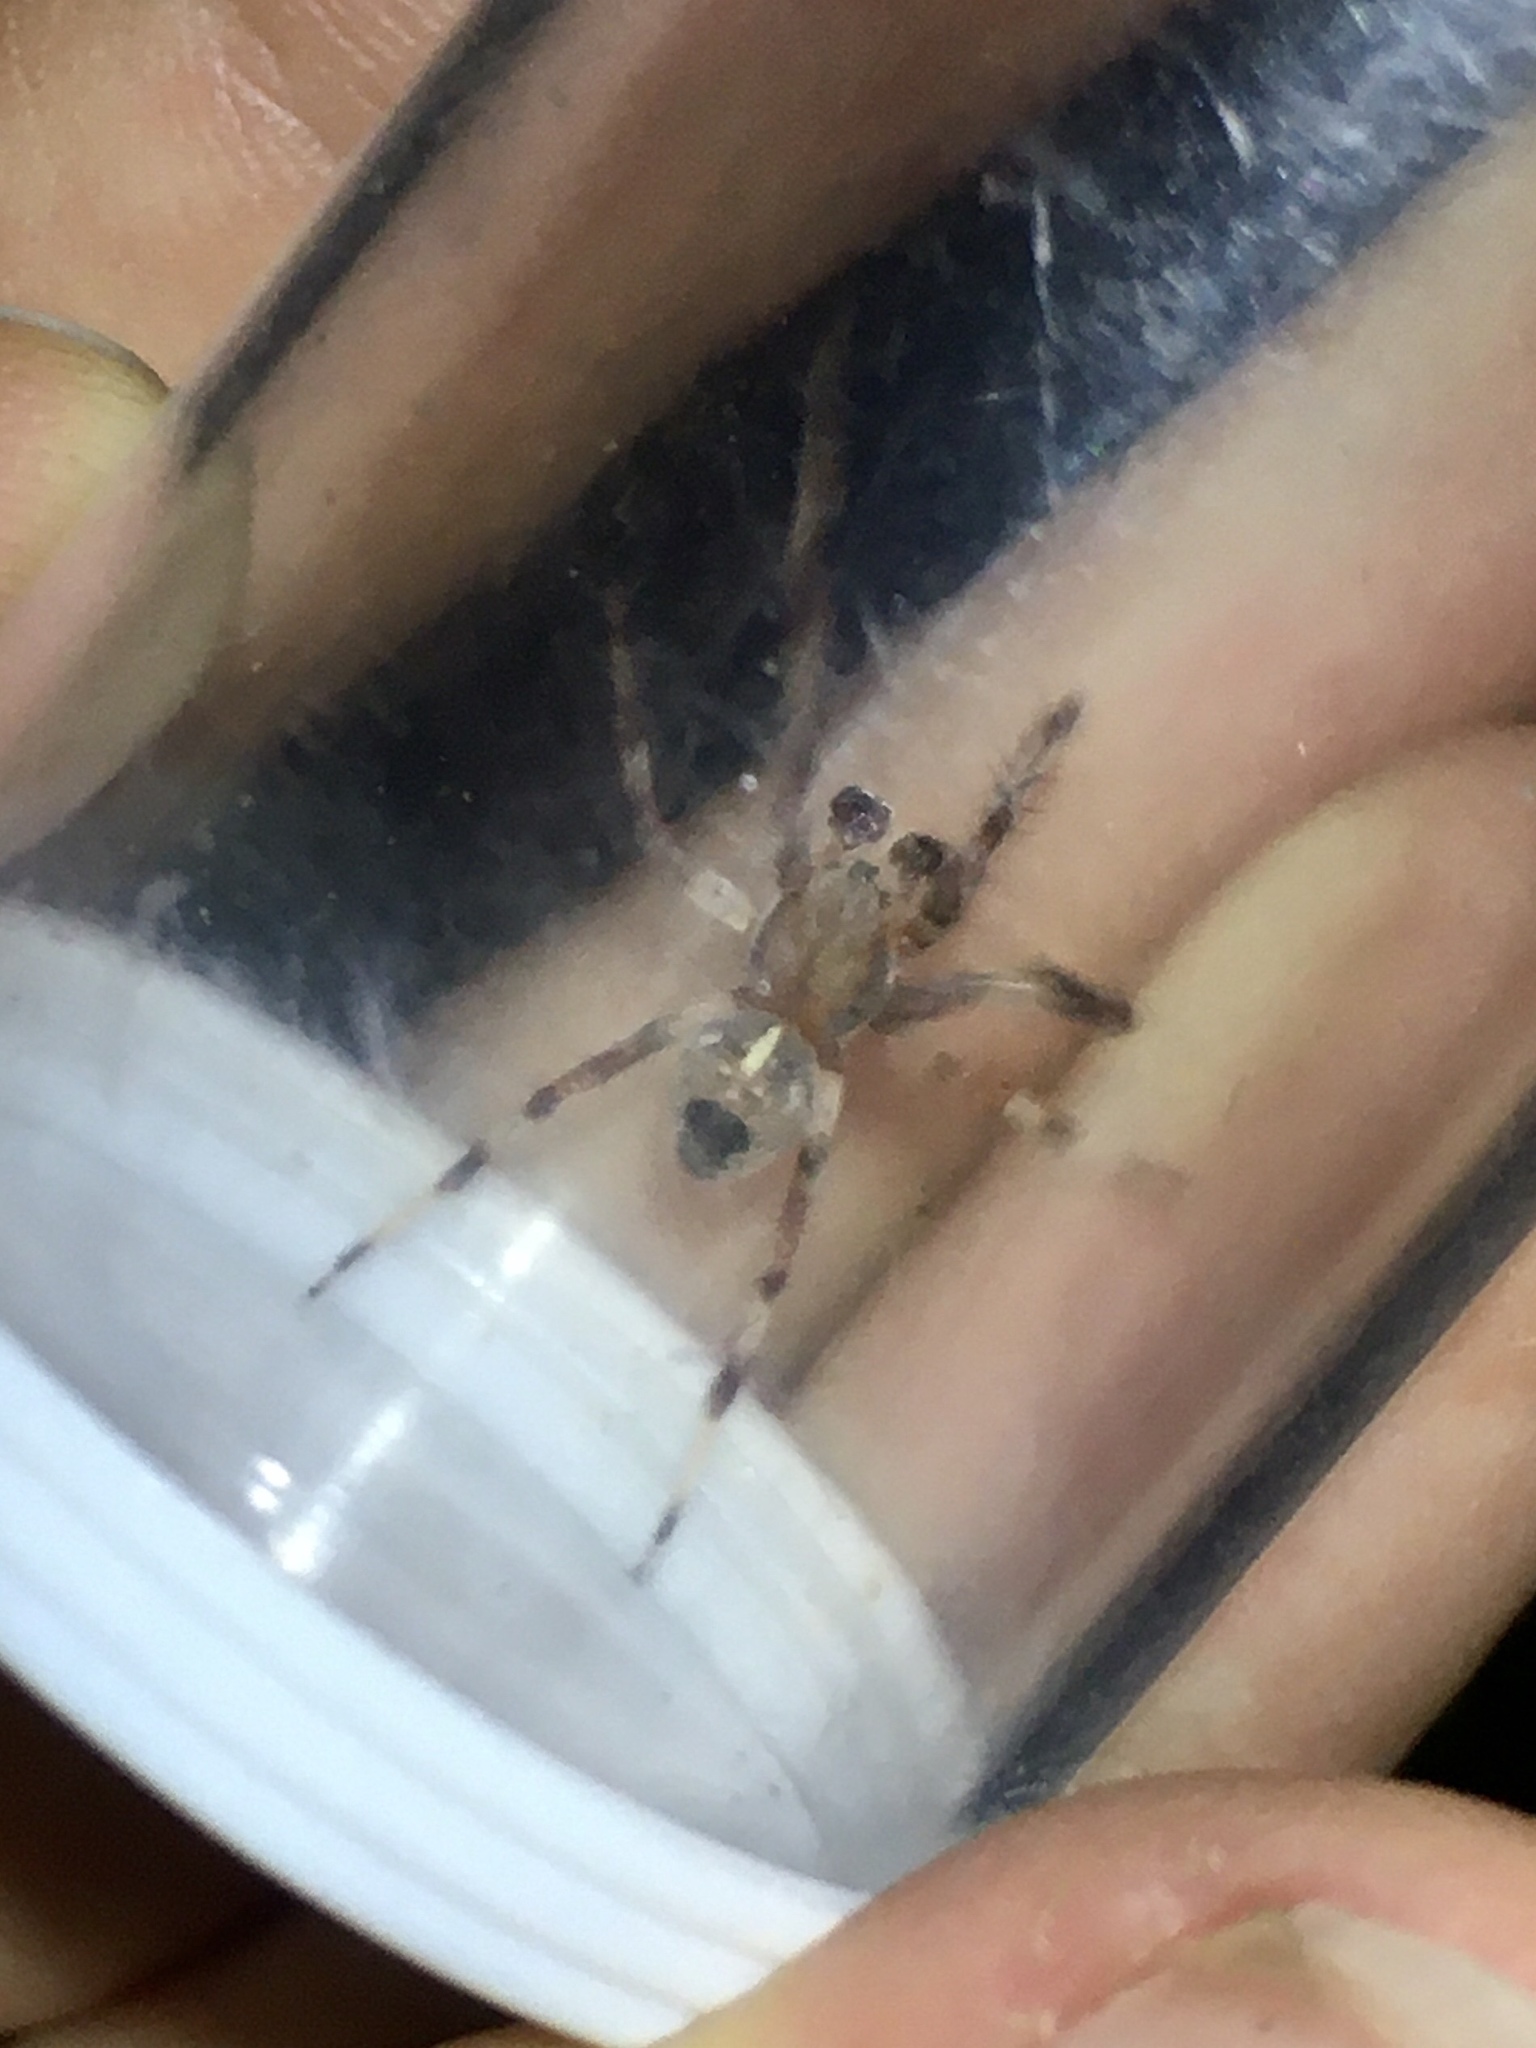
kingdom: Animalia
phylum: Arthropoda
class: Arachnida
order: Araneae
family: Araneidae
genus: Araneus
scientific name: Araneus marmoreus
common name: Marbled orbweaver
